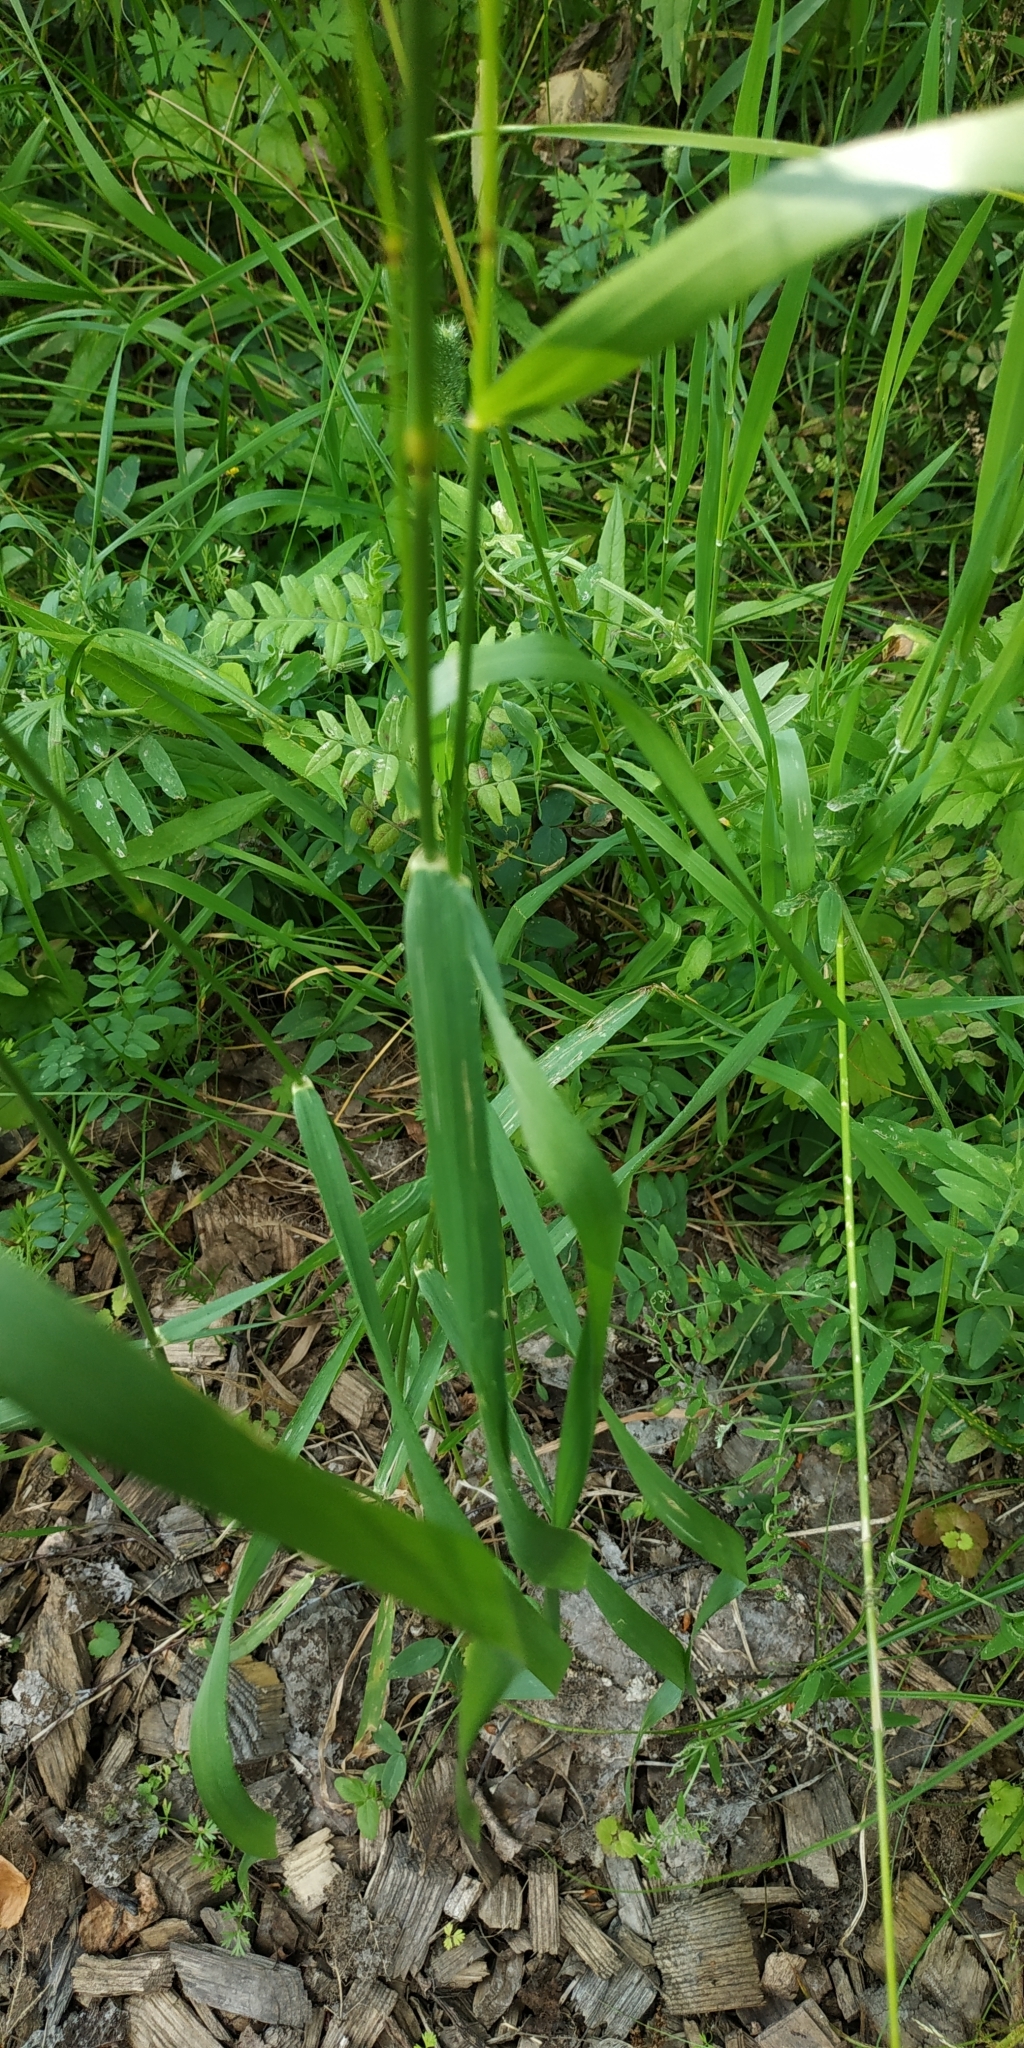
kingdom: Plantae
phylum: Tracheophyta
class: Liliopsida
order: Poales
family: Poaceae
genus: Elymus
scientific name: Elymus repens
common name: Quackgrass
